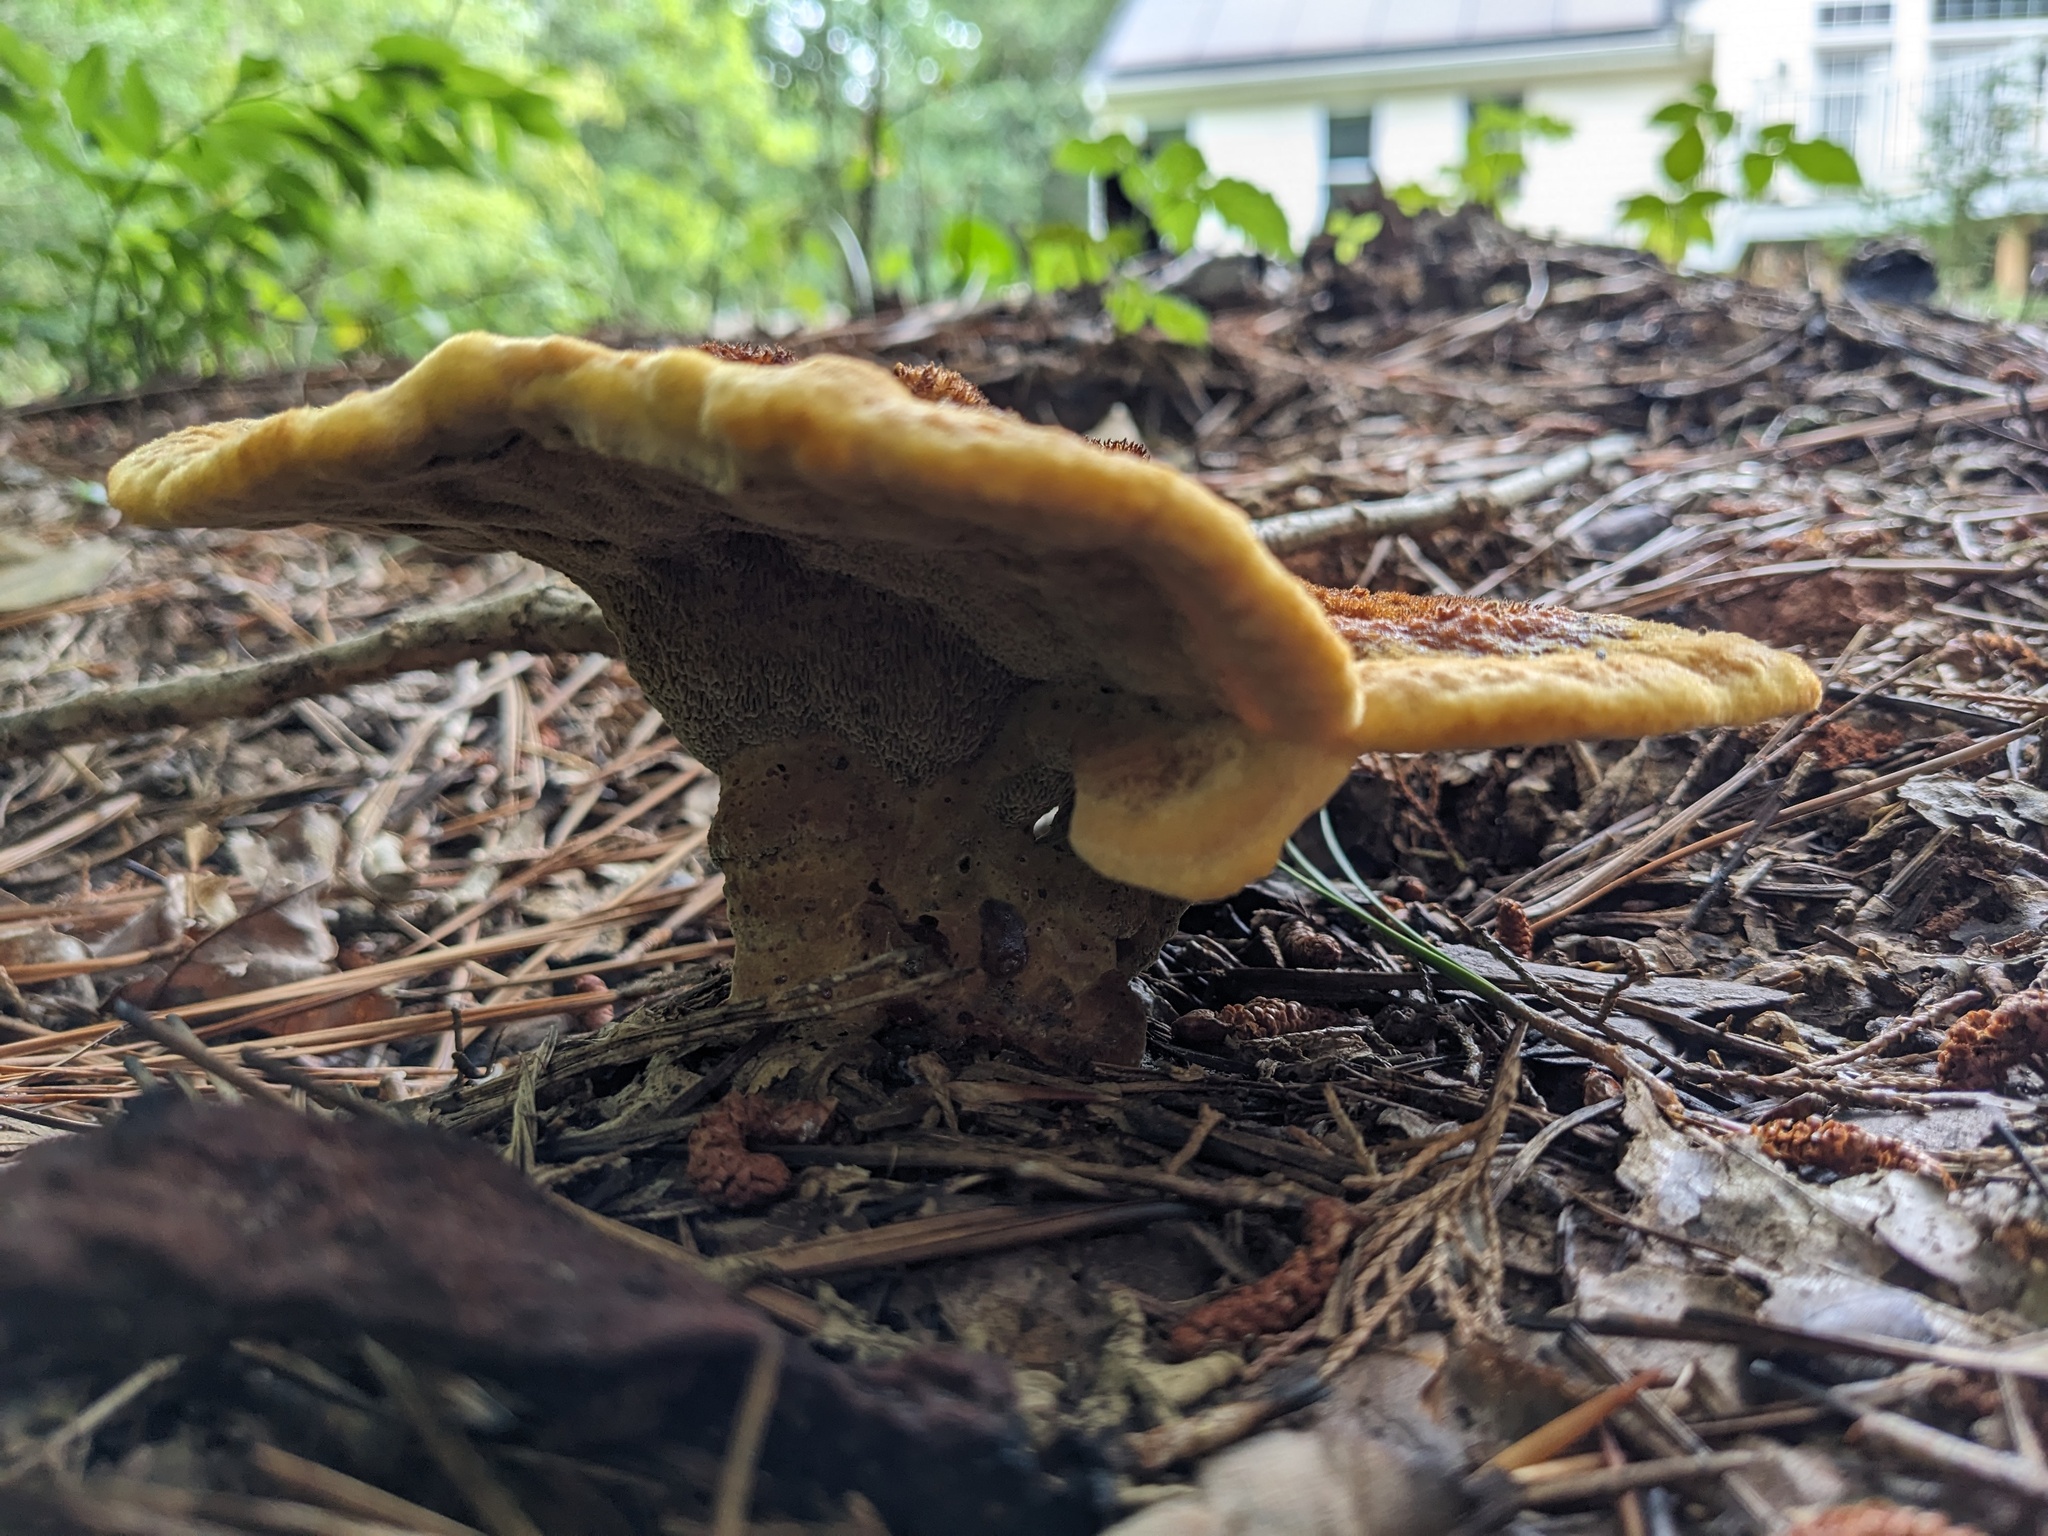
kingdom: Fungi
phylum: Basidiomycota
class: Agaricomycetes
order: Polyporales
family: Laetiporaceae
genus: Phaeolus
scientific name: Phaeolus schweinitzii
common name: Dyer's mazegill
